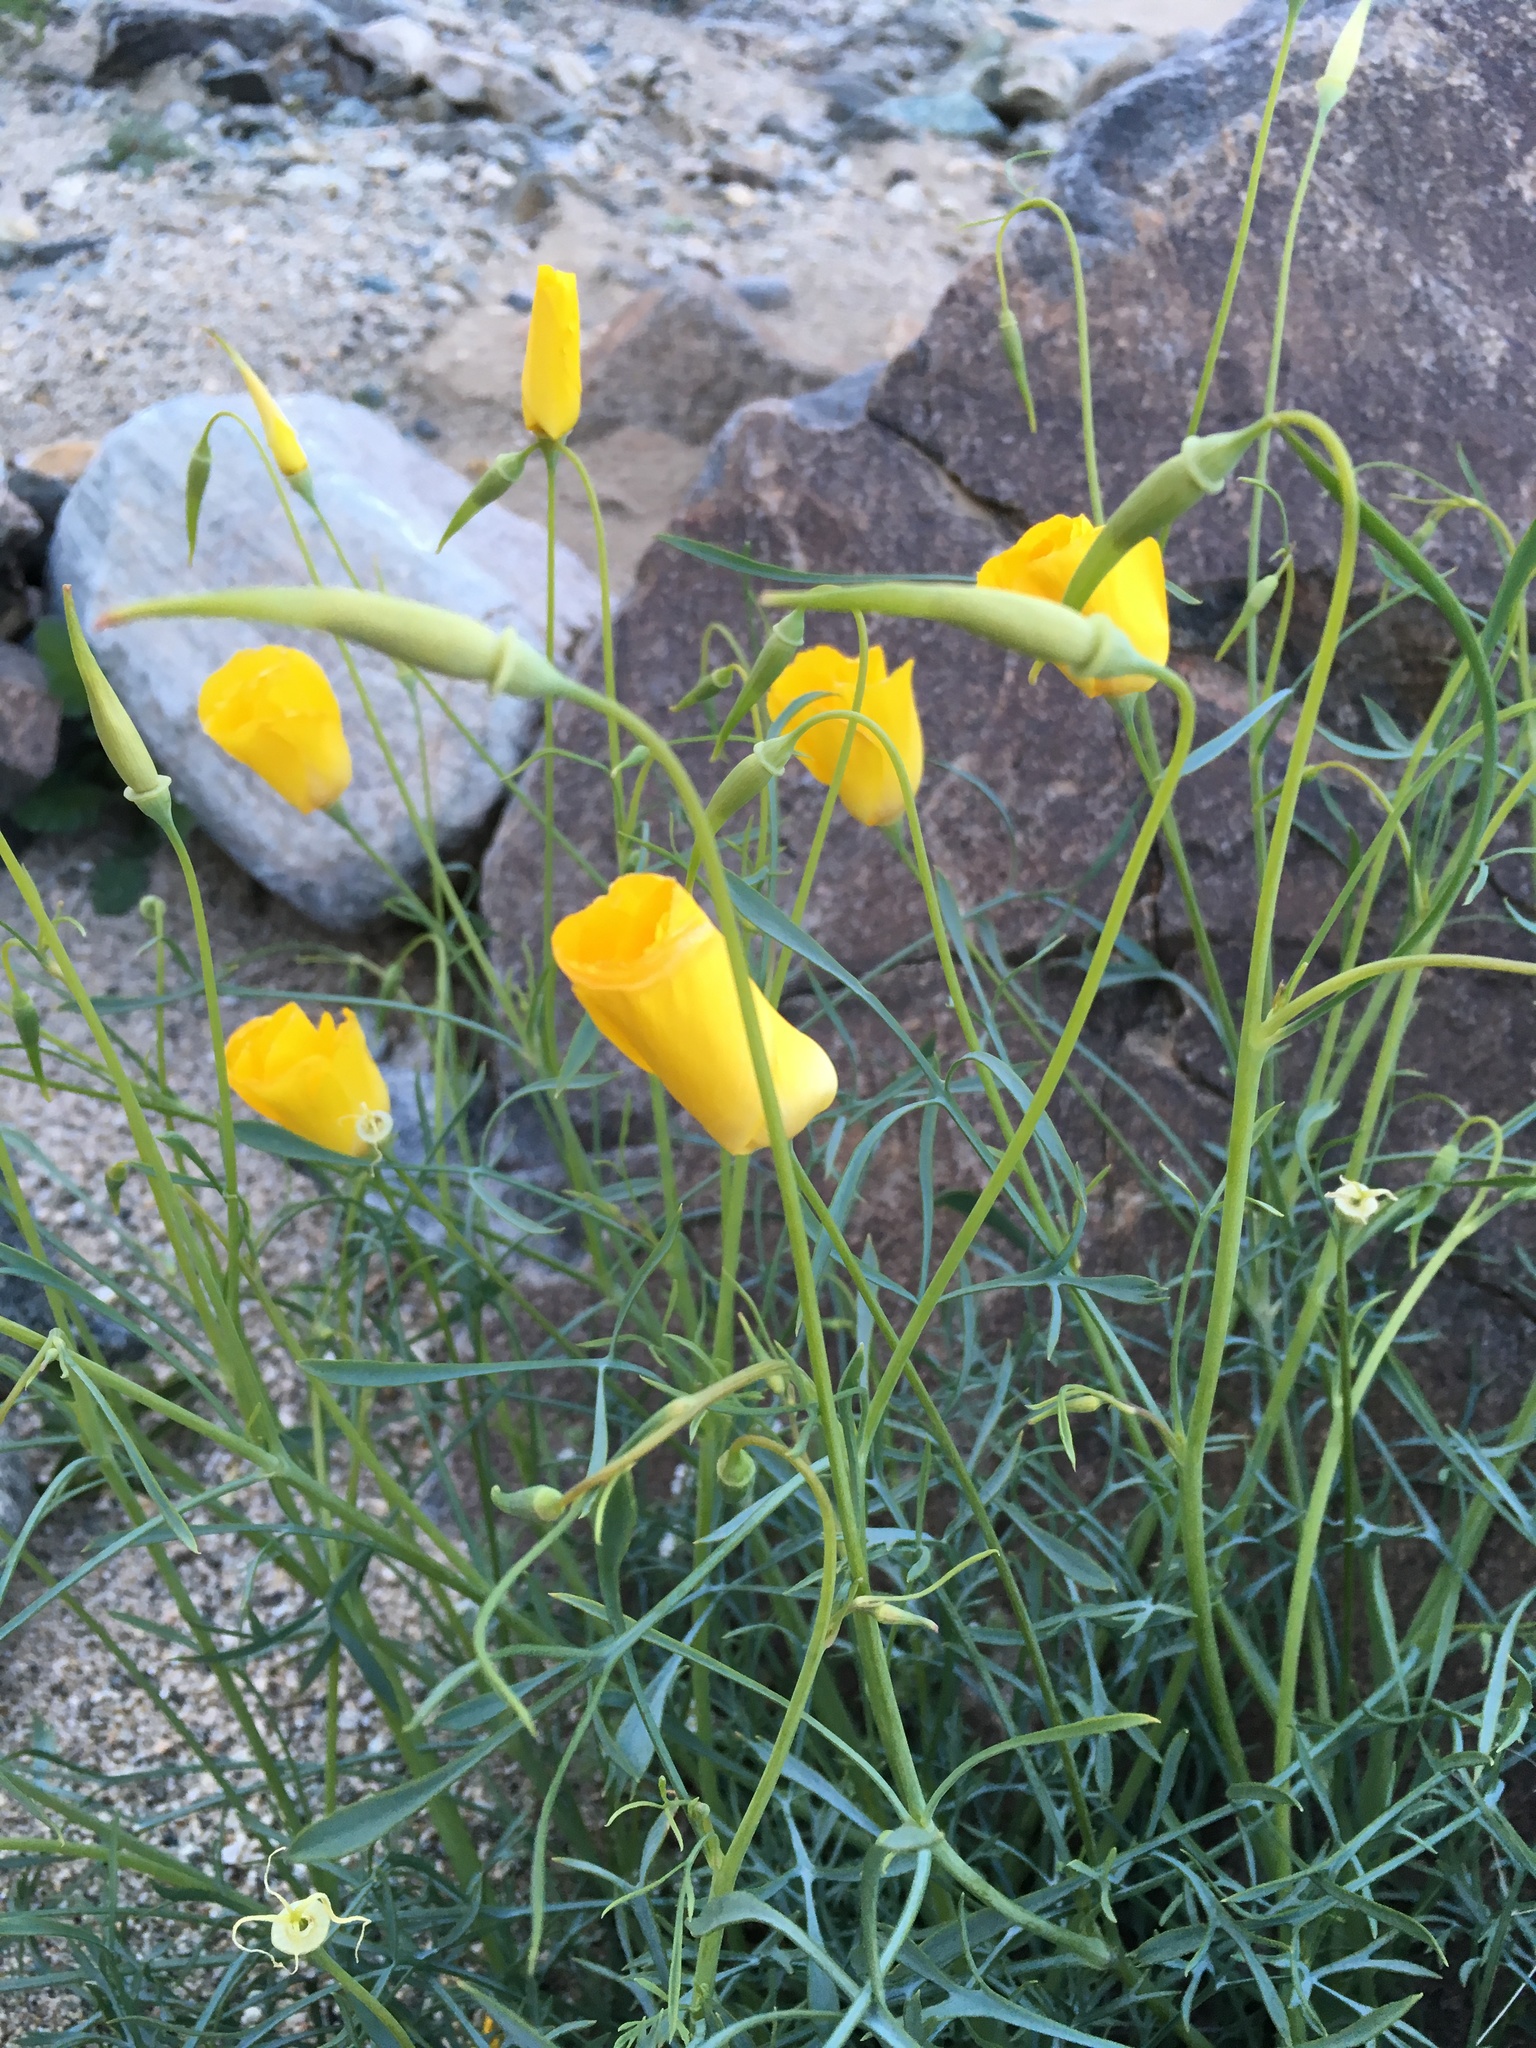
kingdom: Plantae
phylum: Tracheophyta
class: Magnoliopsida
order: Ranunculales
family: Papaveraceae
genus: Eschscholzia
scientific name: Eschscholzia papastillii
